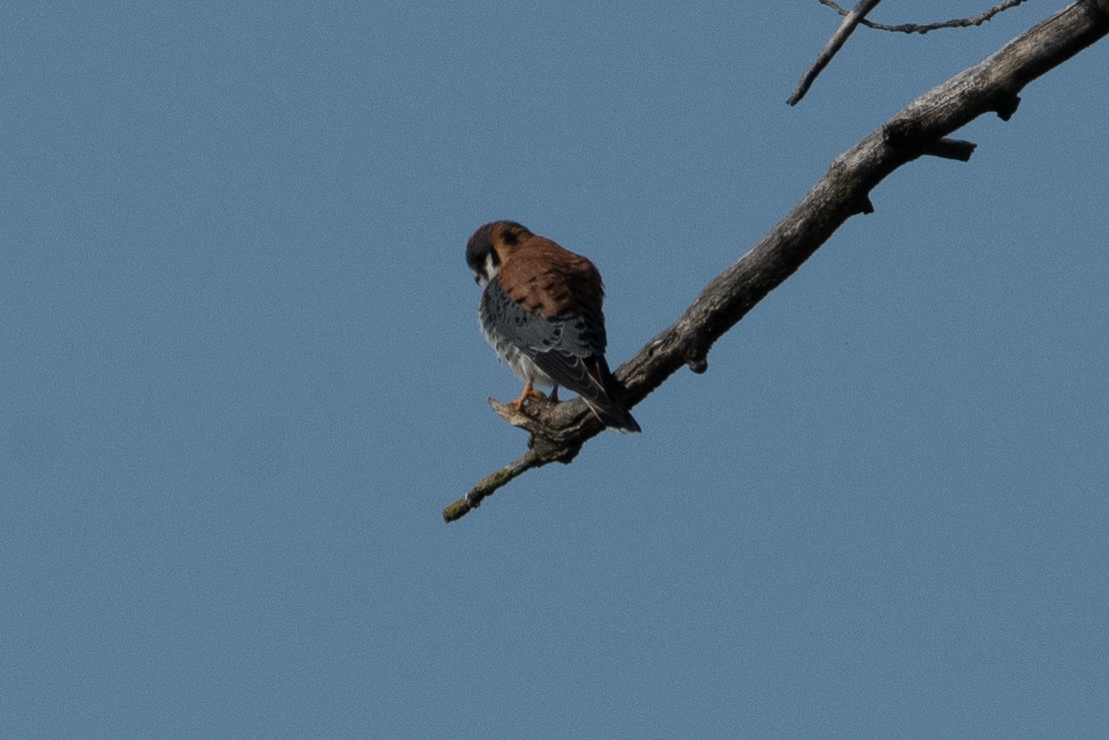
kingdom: Animalia
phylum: Chordata
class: Aves
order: Falconiformes
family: Falconidae
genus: Falco
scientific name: Falco sparverius
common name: American kestrel
